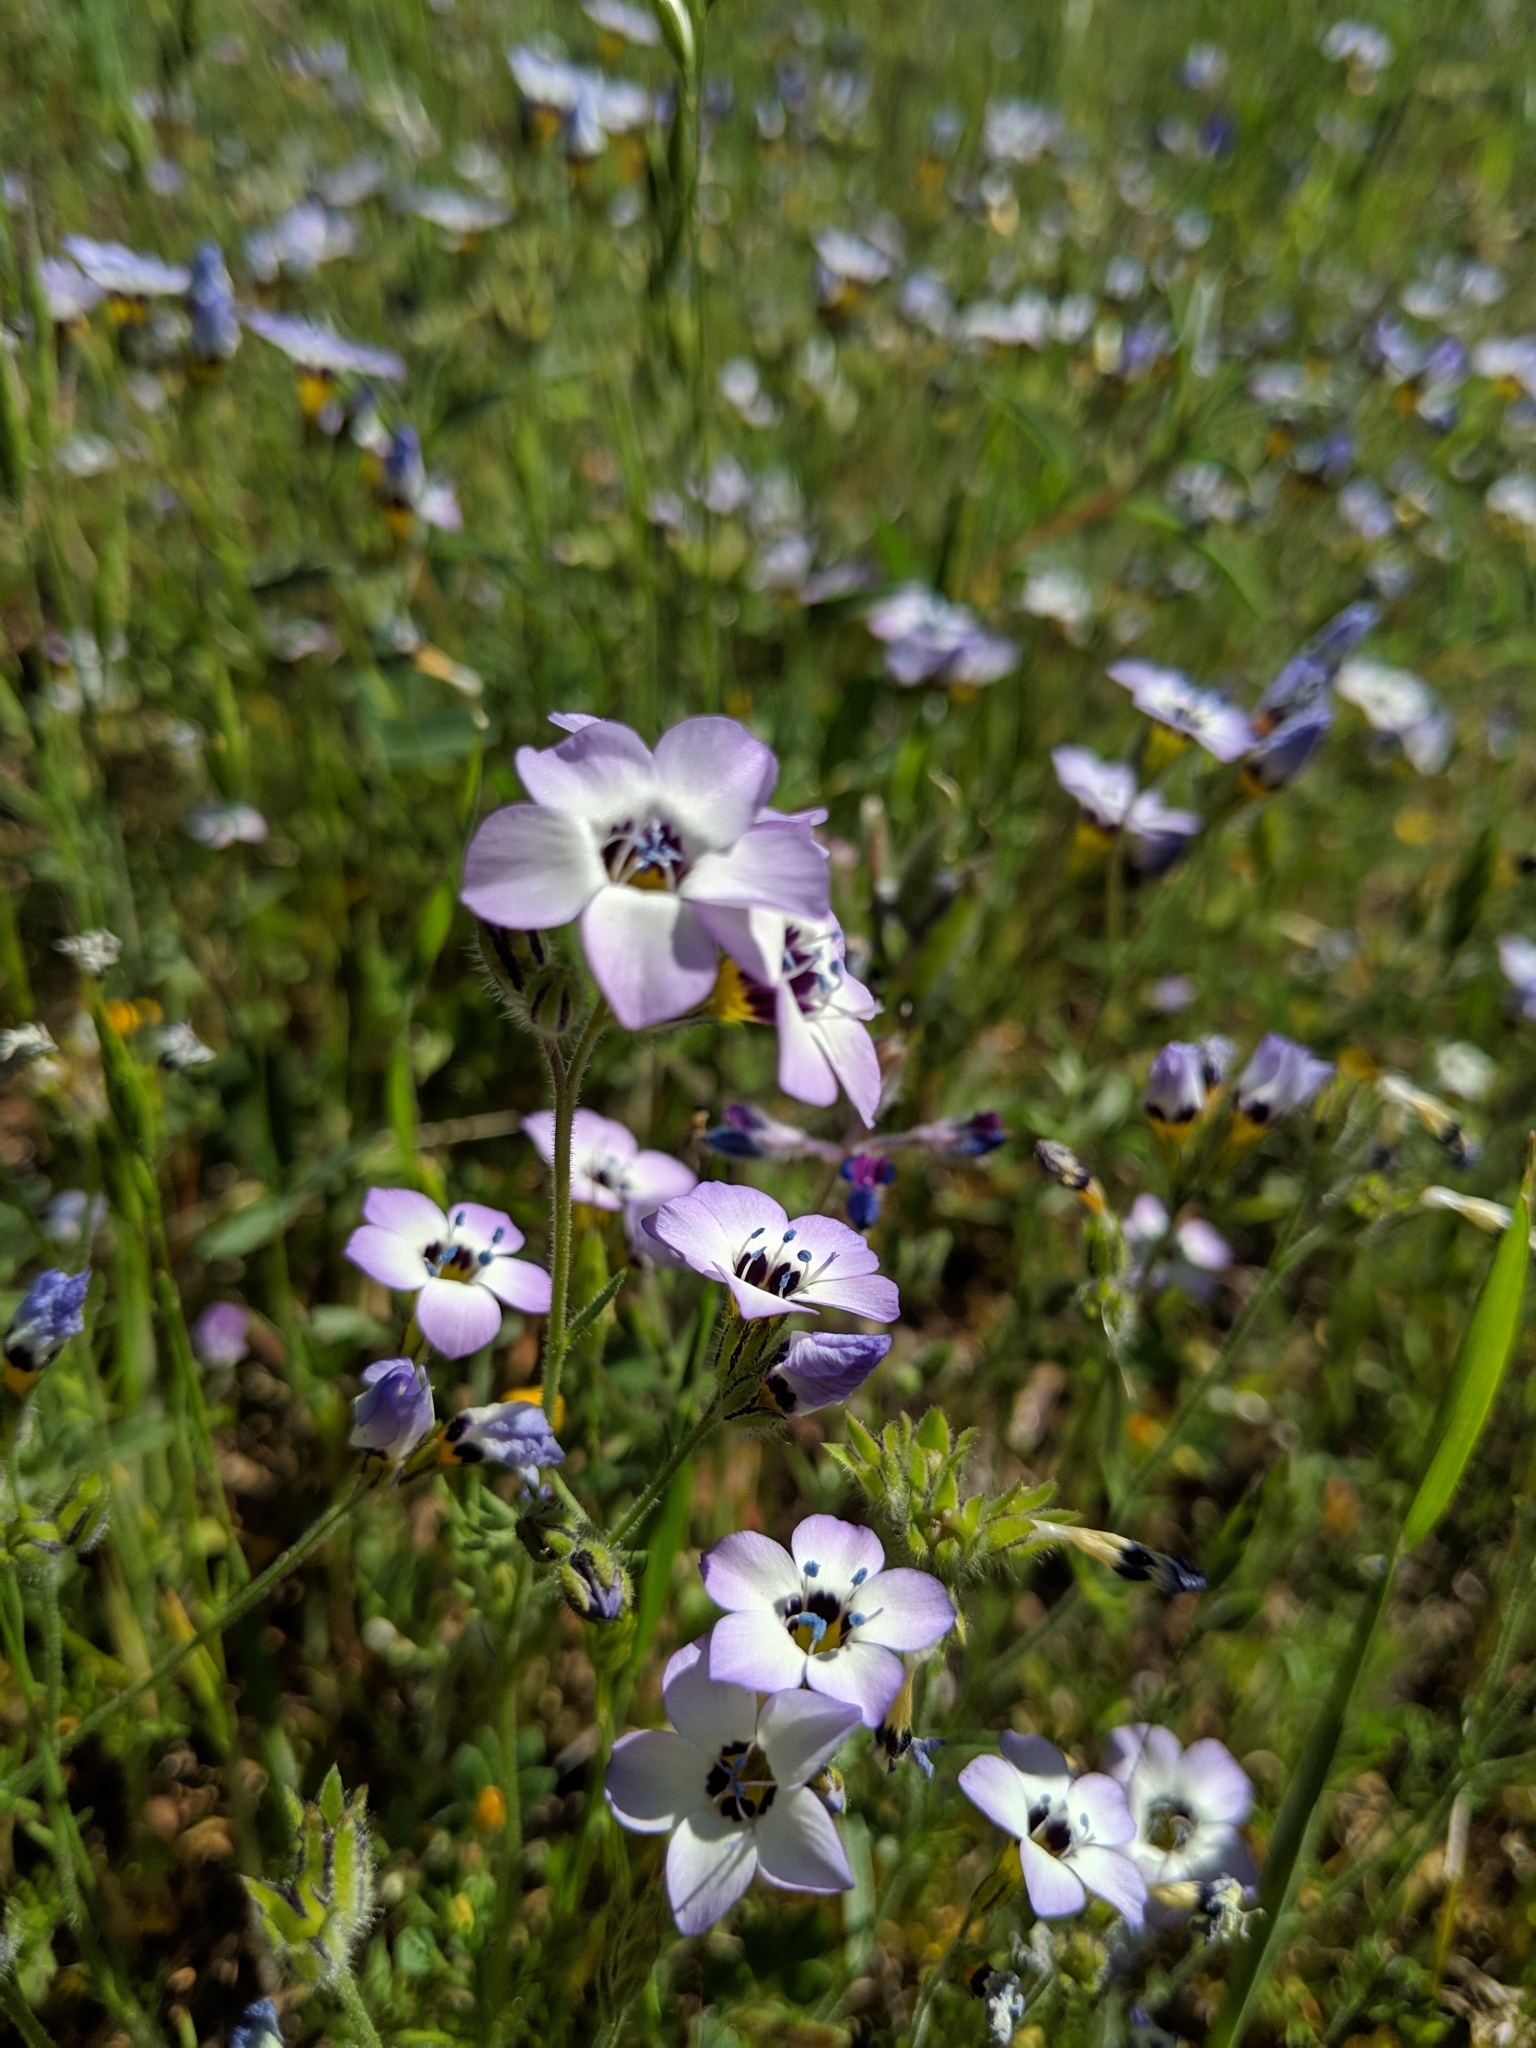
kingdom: Plantae
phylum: Tracheophyta
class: Magnoliopsida
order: Ericales
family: Polemoniaceae
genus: Gilia
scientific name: Gilia tricolor
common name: Bird's-eyes
